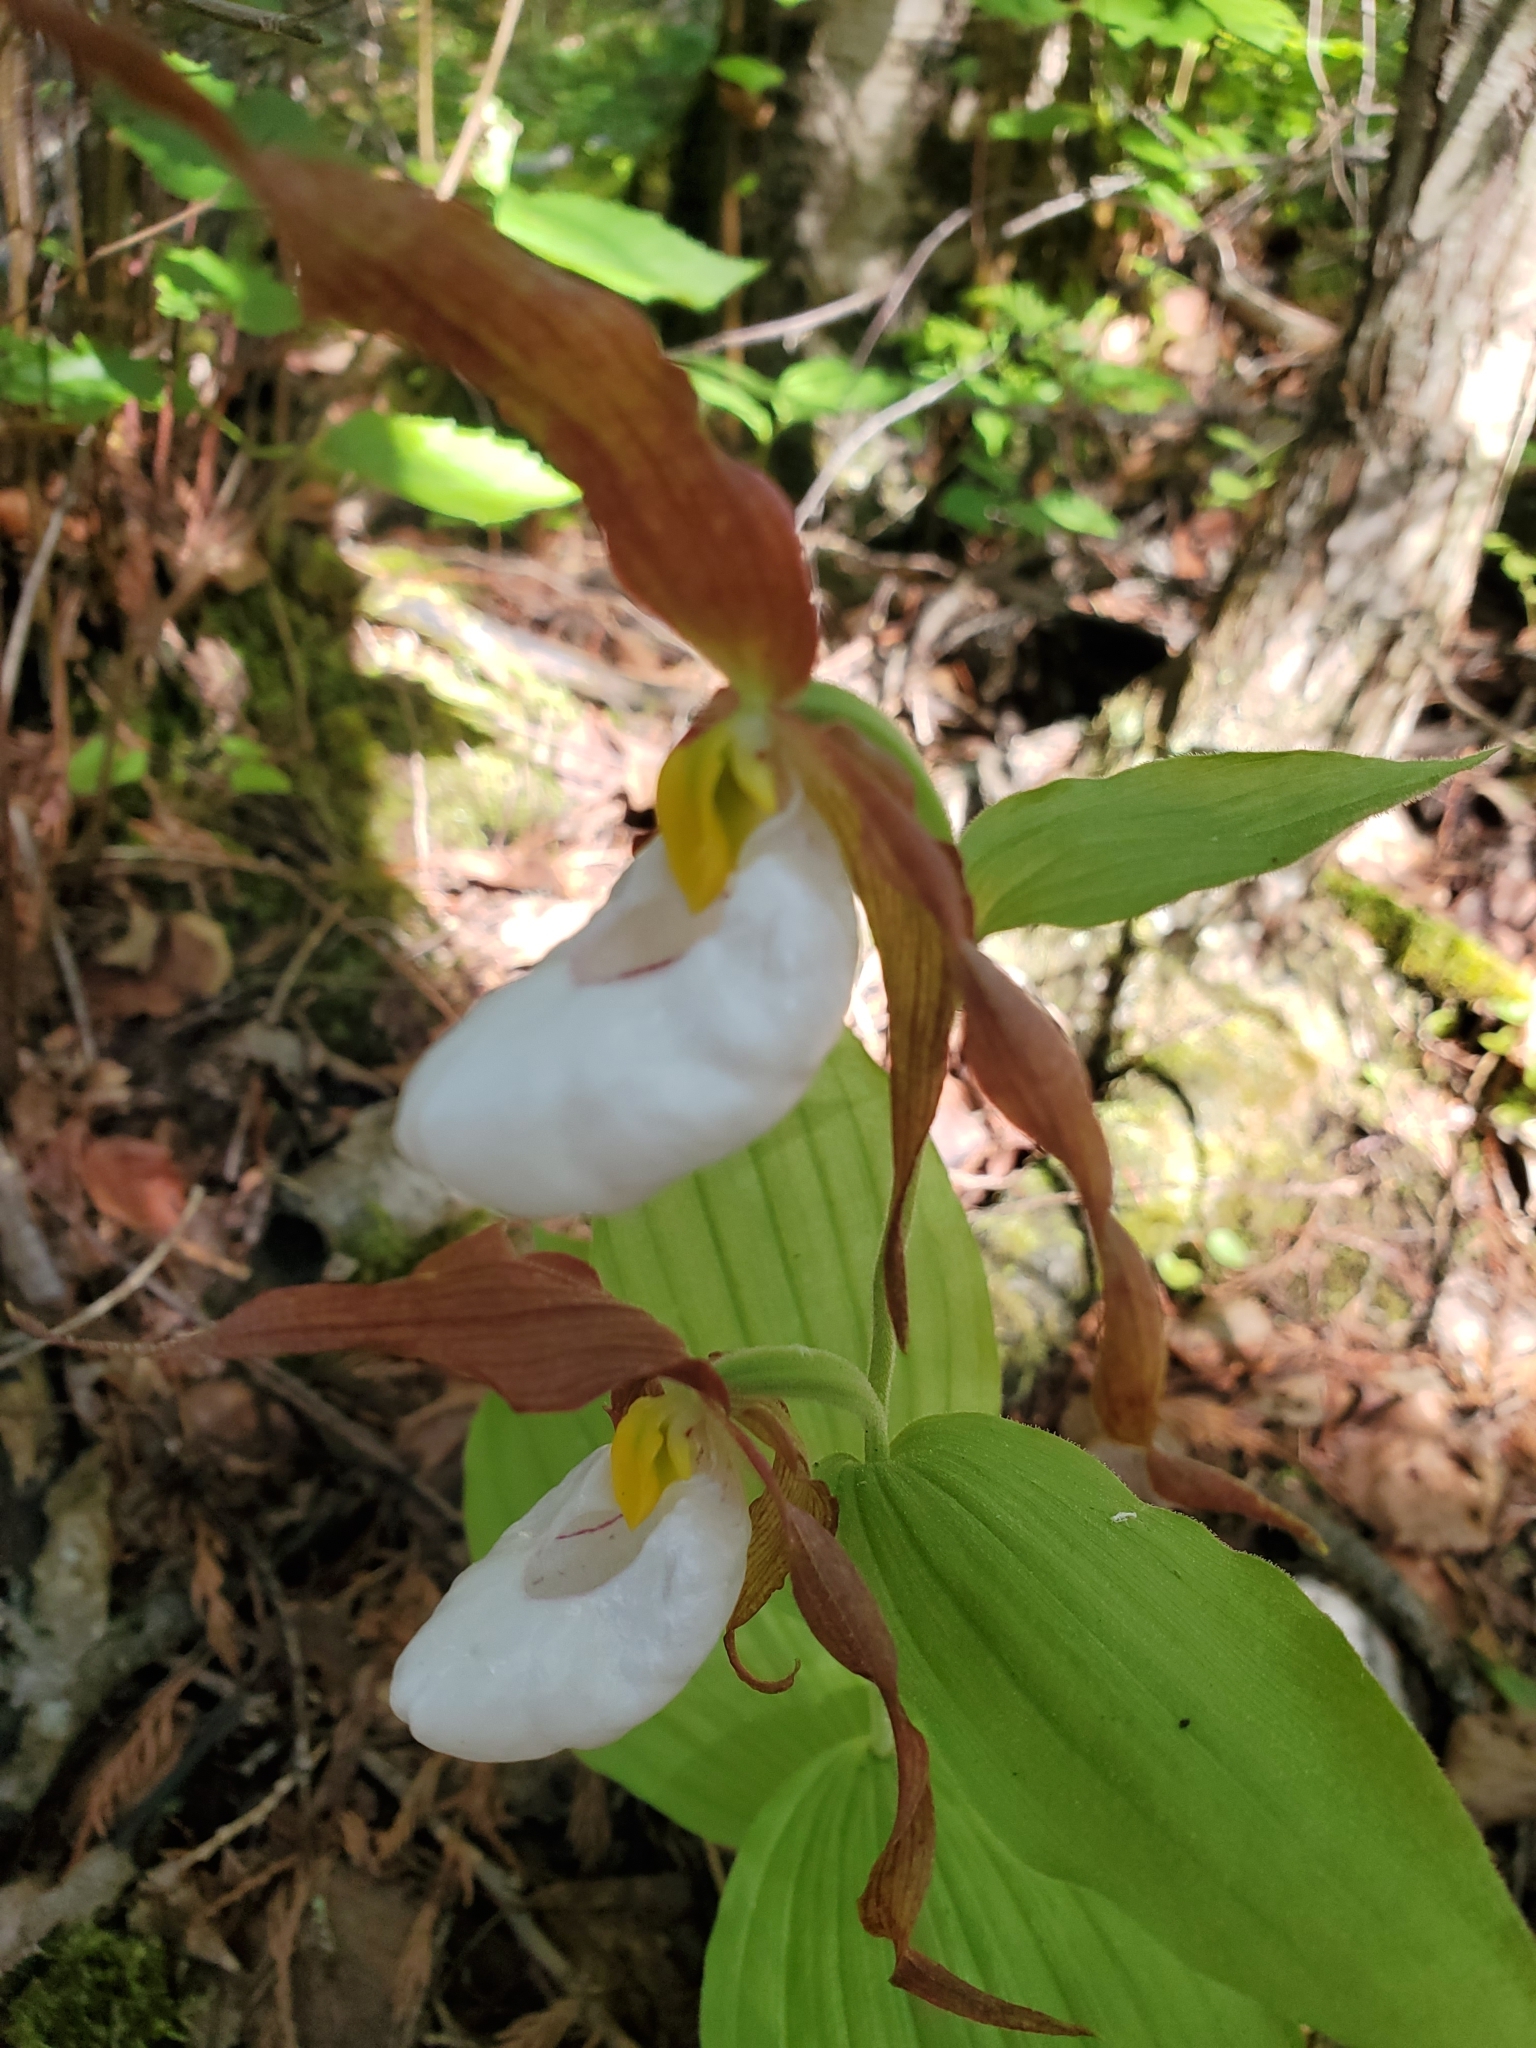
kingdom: Plantae
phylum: Tracheophyta
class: Liliopsida
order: Asparagales
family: Orchidaceae
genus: Cypripedium
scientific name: Cypripedium montanum
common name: Mountain lady's-slipper
